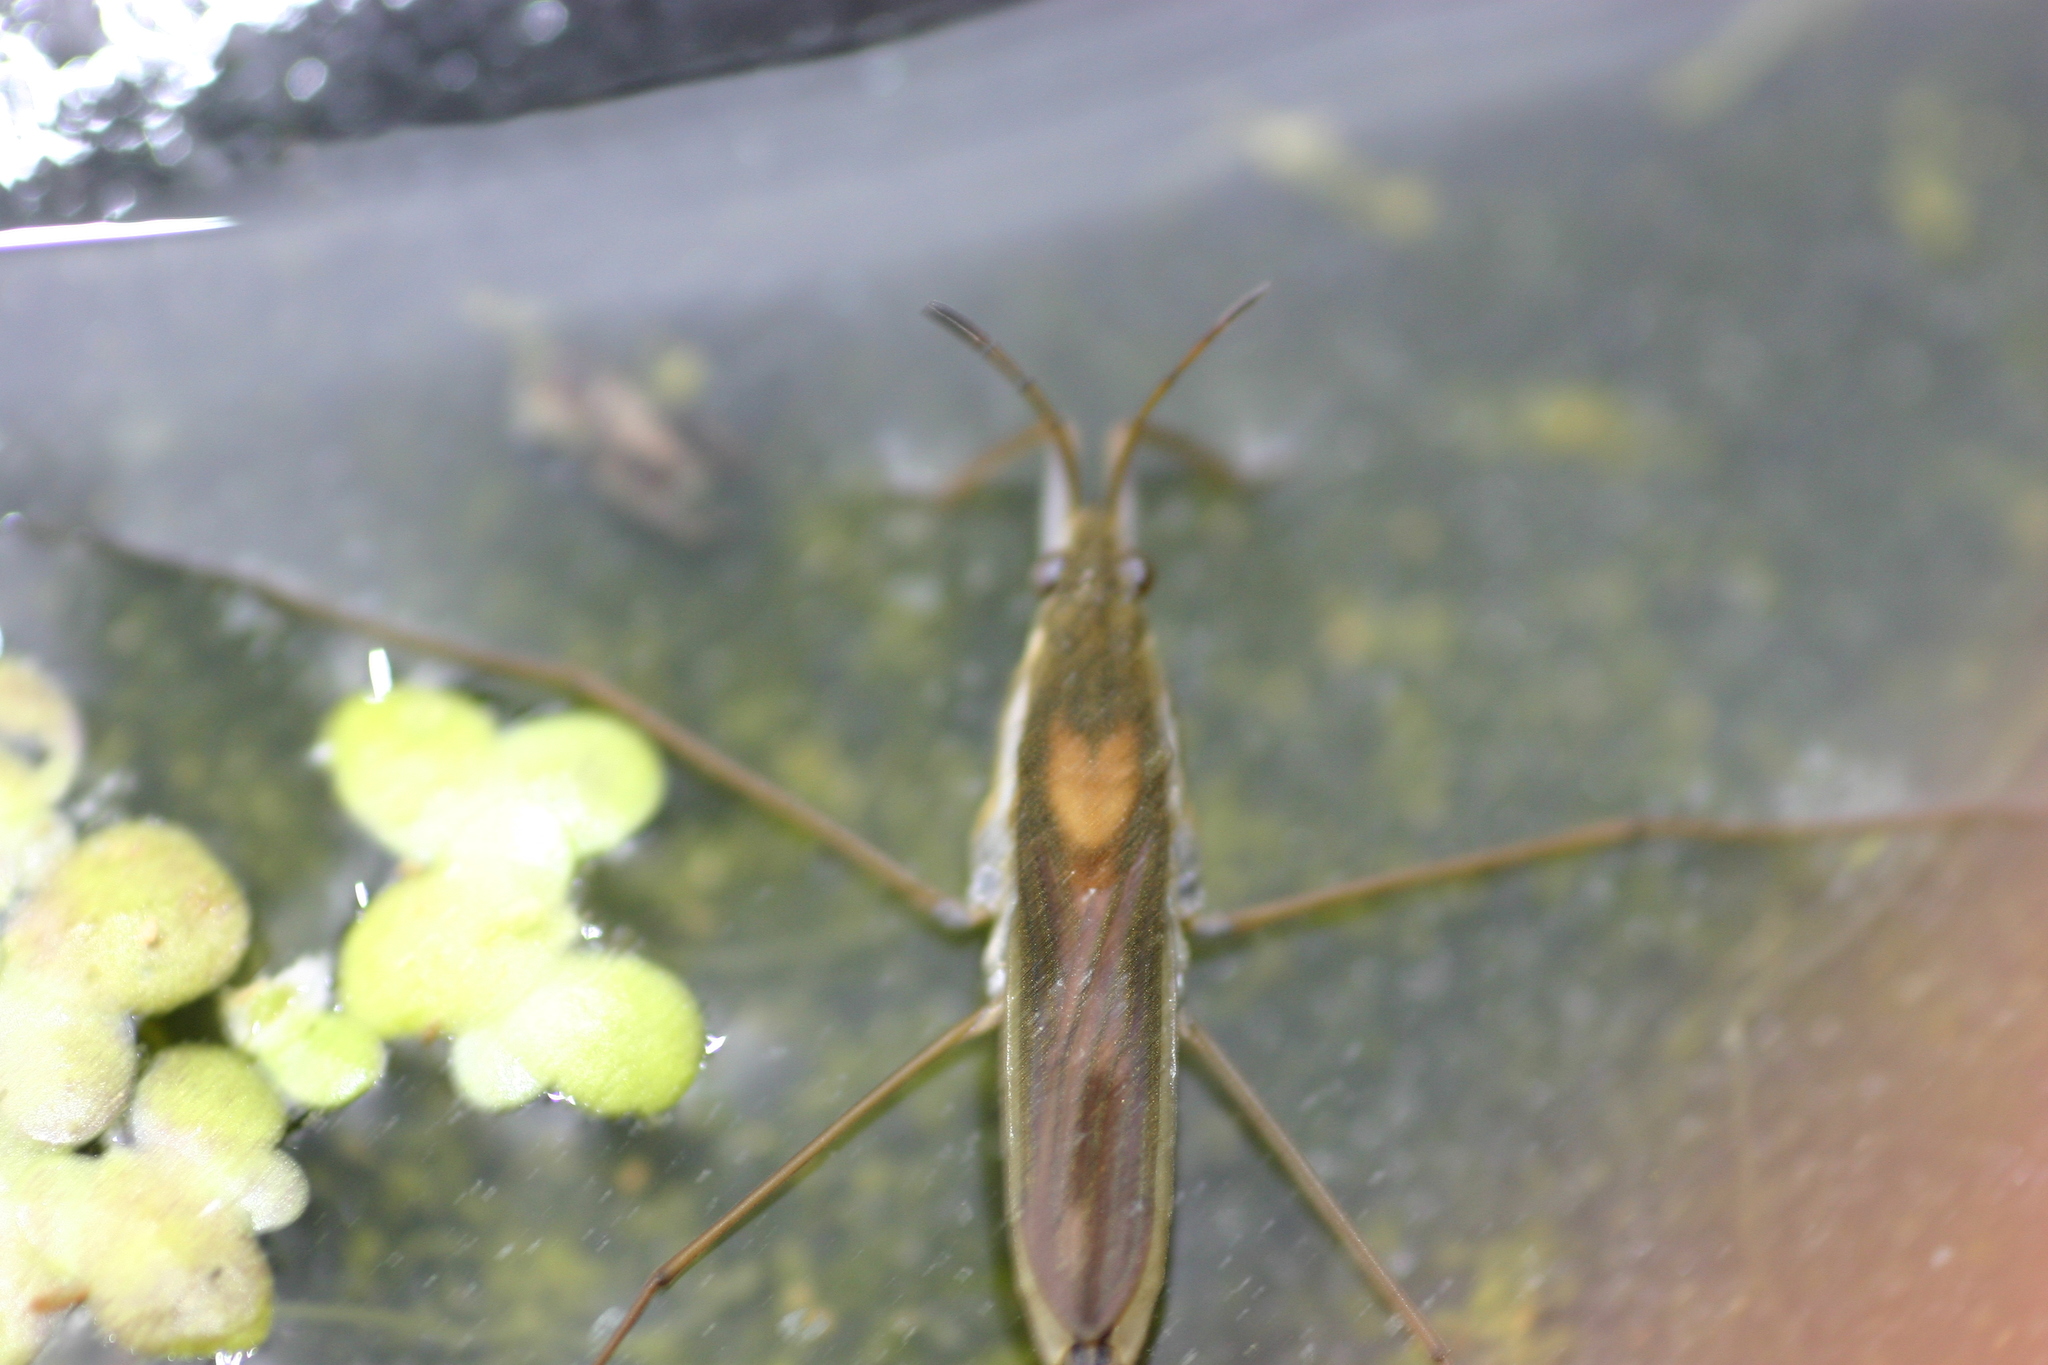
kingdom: Animalia
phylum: Arthropoda
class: Insecta
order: Hemiptera
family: Gerridae
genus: Gerris
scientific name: Gerris thoracicus
